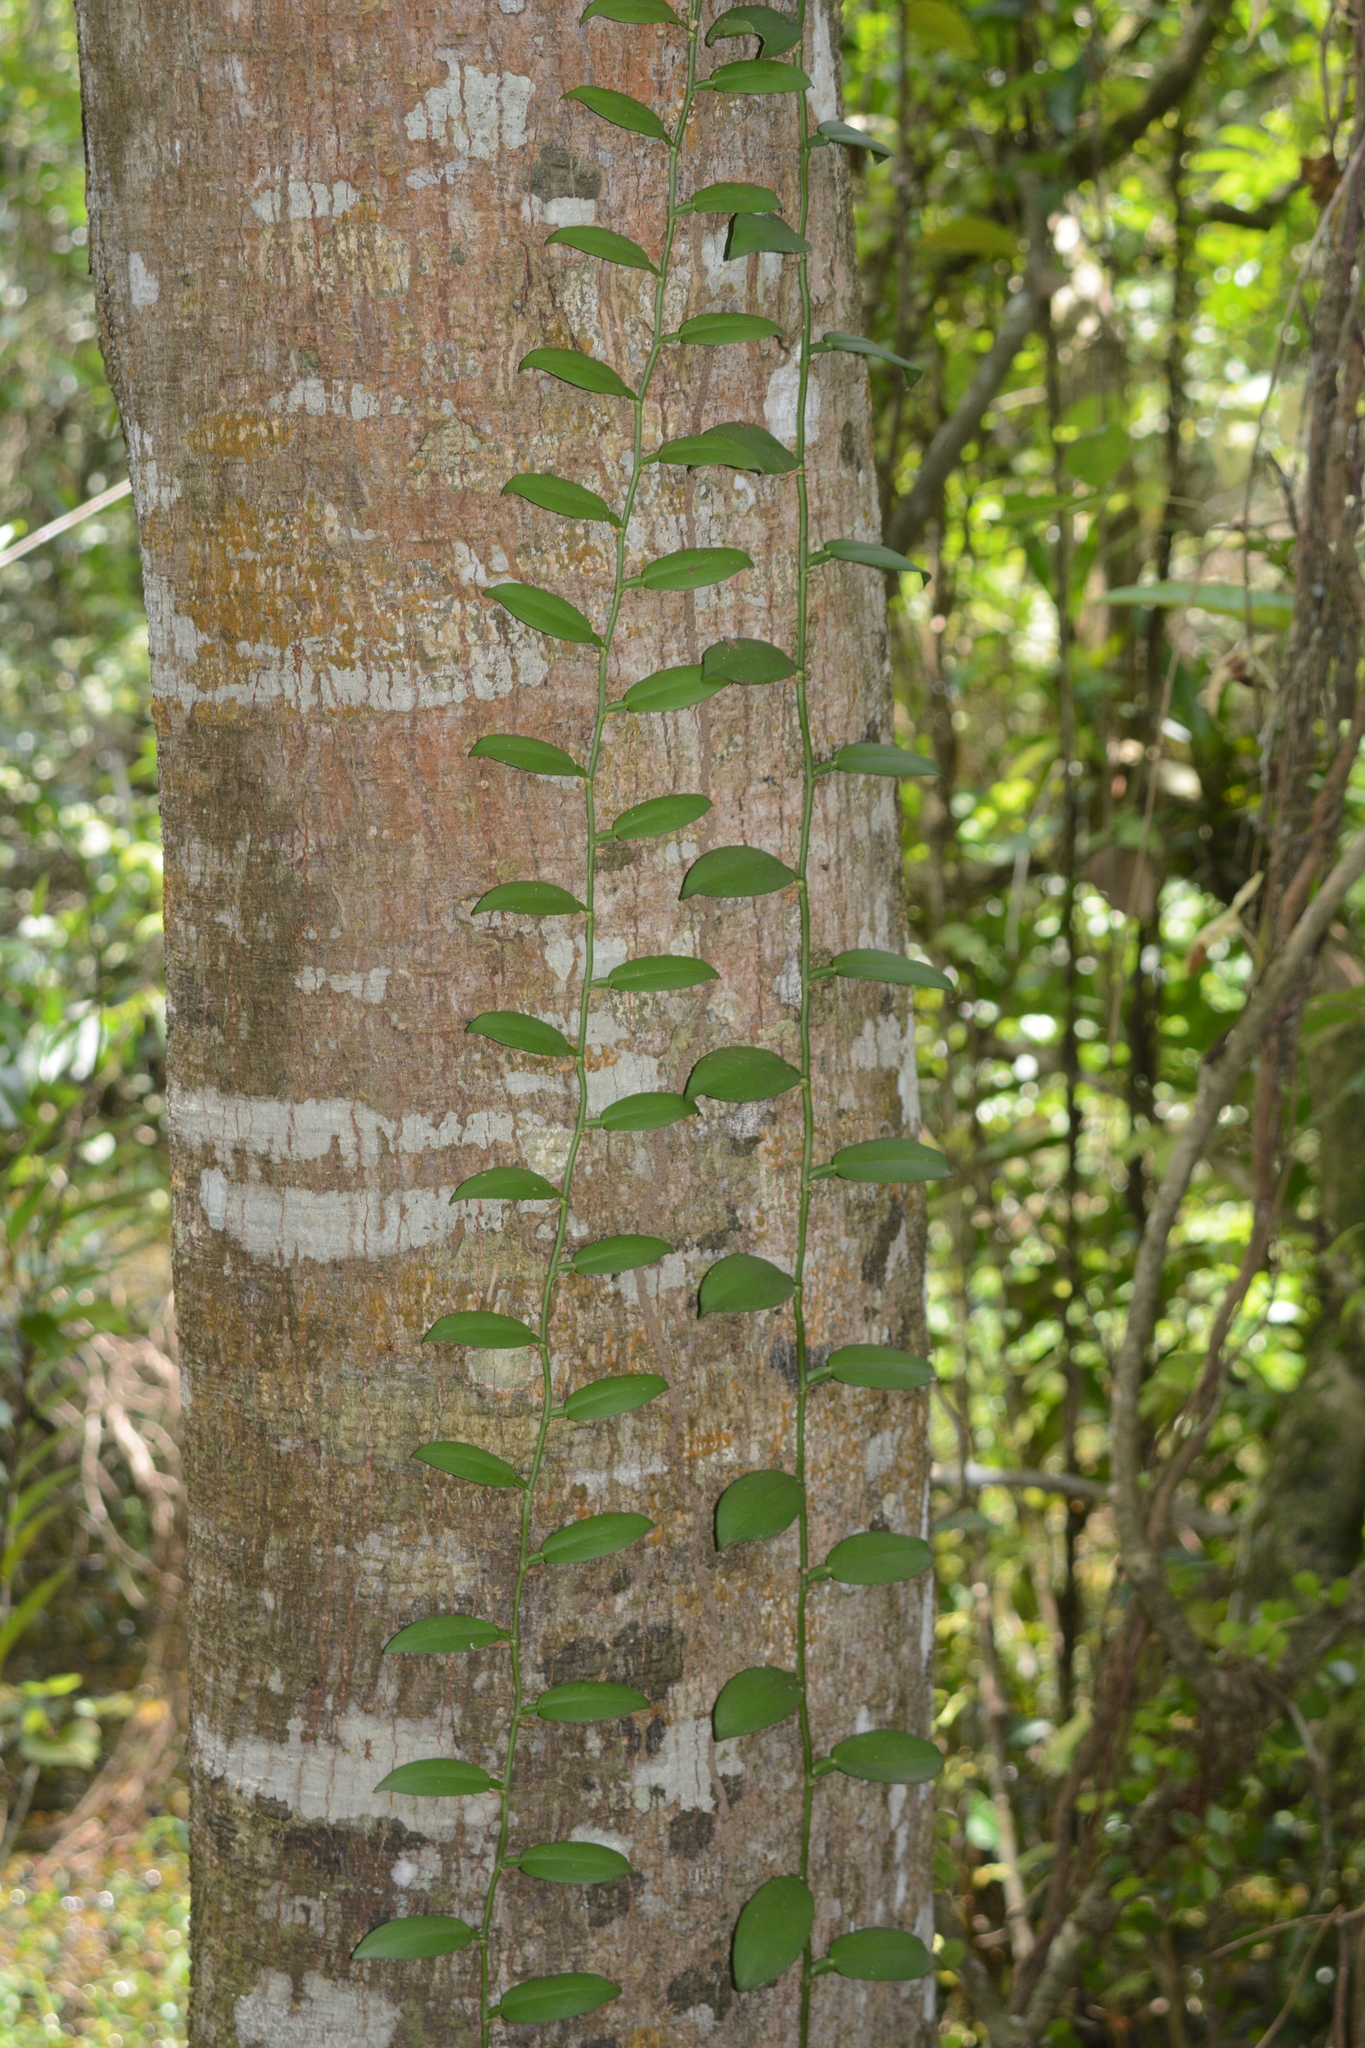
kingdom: Plantae
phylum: Tracheophyta
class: Liliopsida
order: Alismatales
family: Araceae
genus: Pothos
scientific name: Pothos scandens
